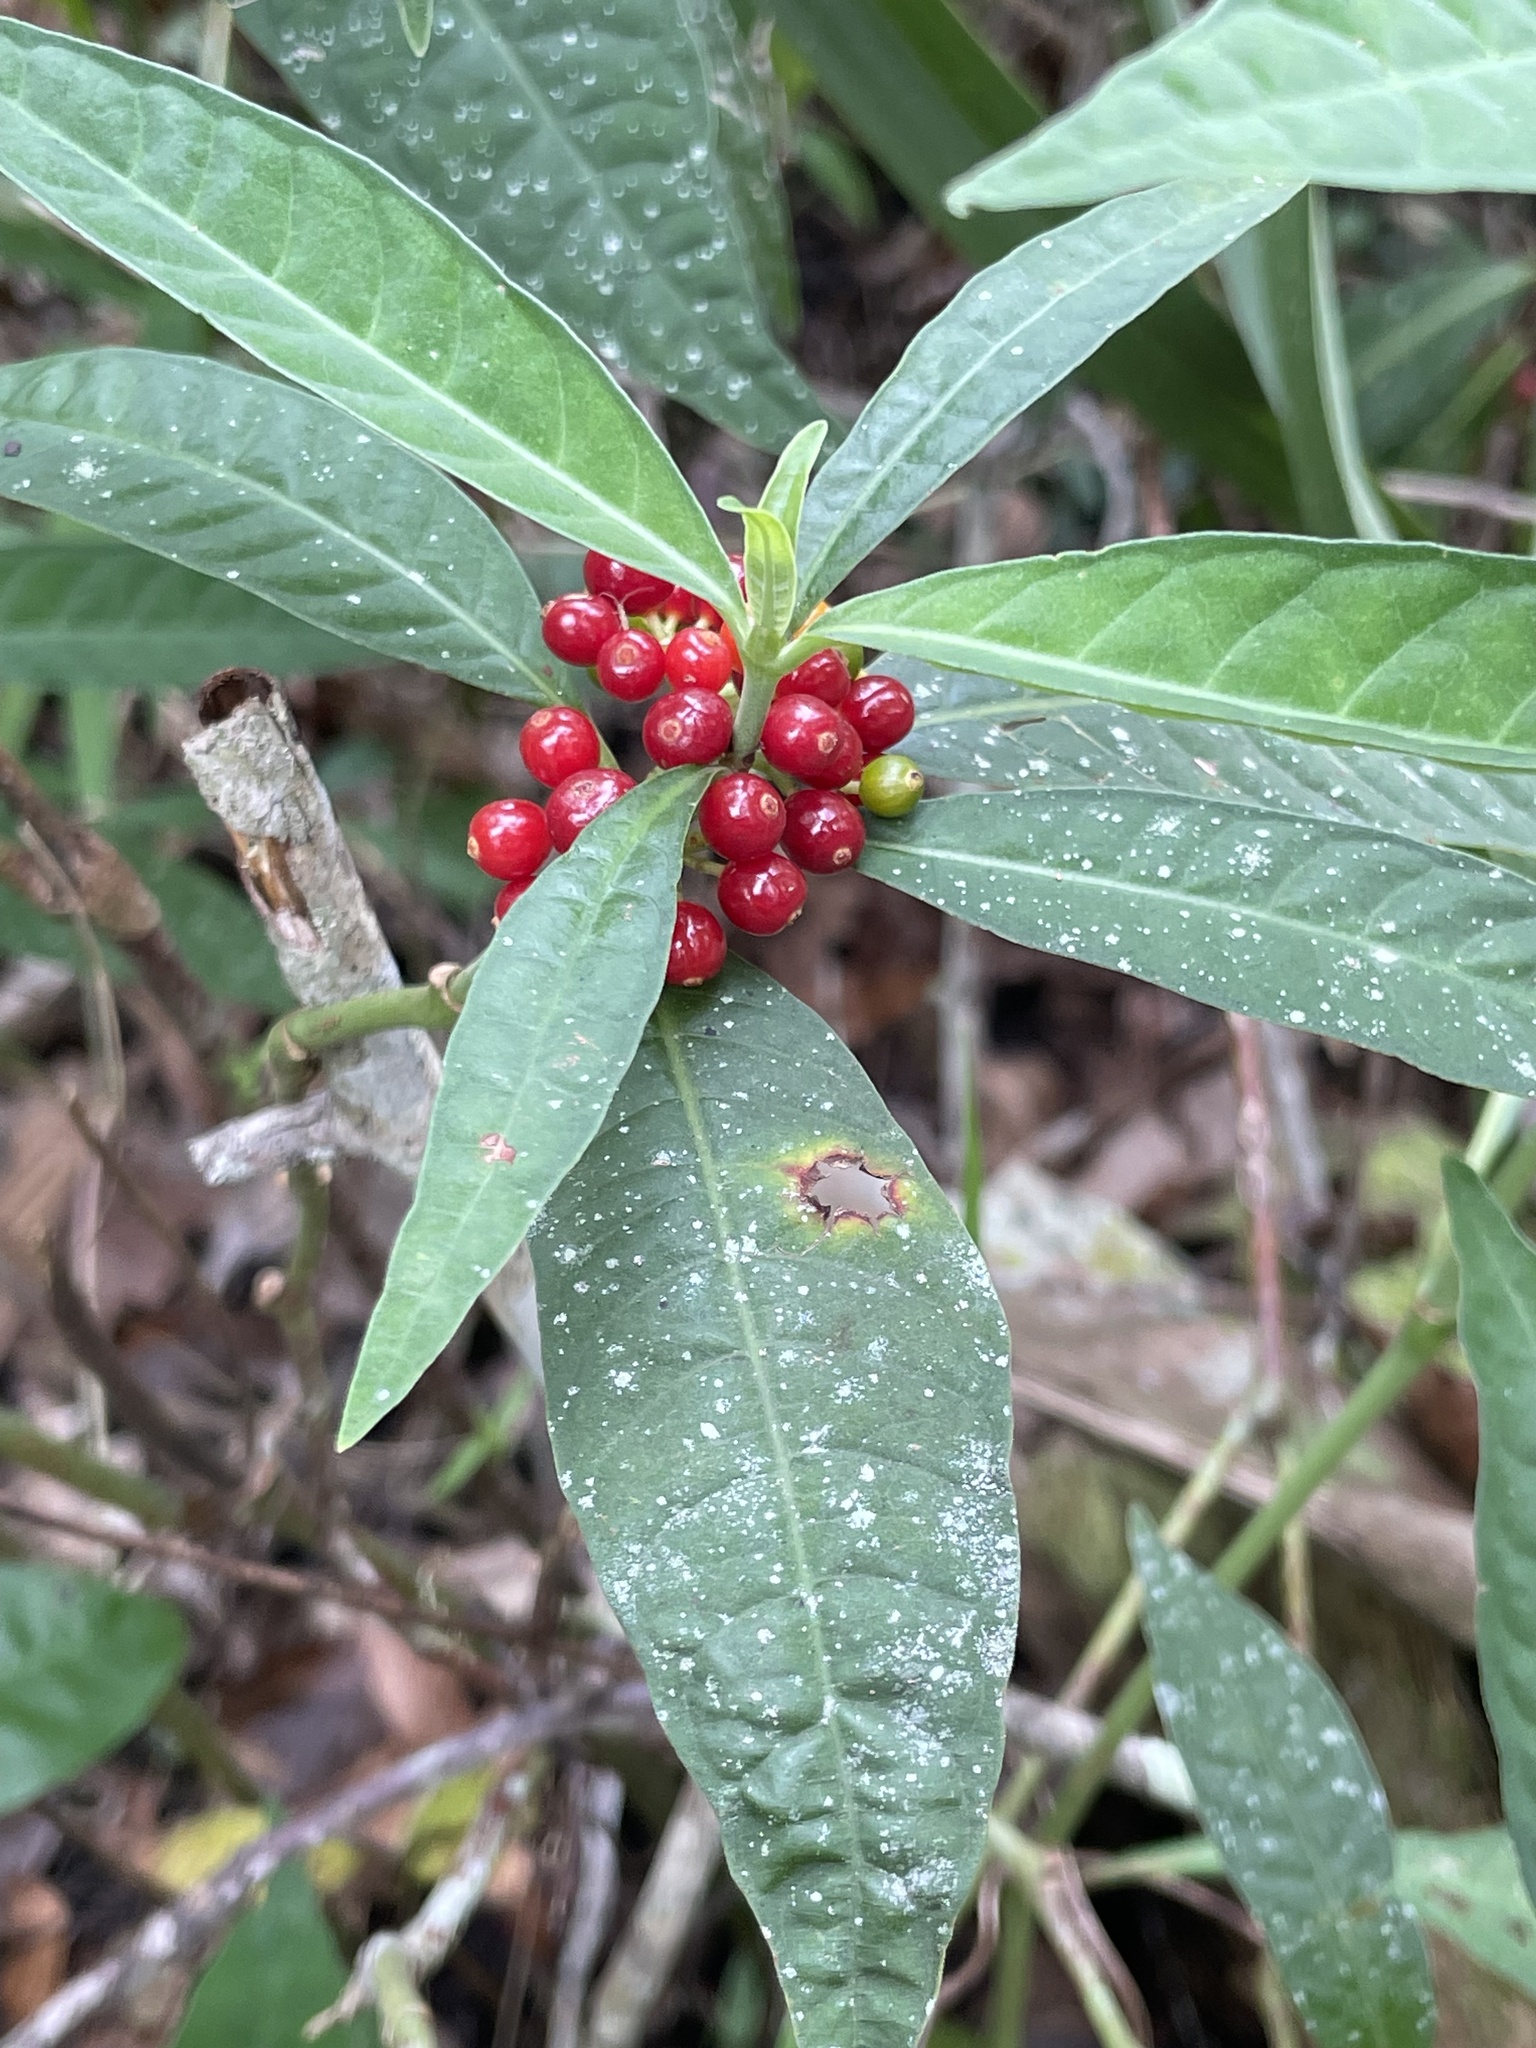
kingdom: Plantae
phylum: Tracheophyta
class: Magnoliopsida
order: Gentianales
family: Rubiaceae
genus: Psychotria
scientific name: Psychotria tenuifolia
